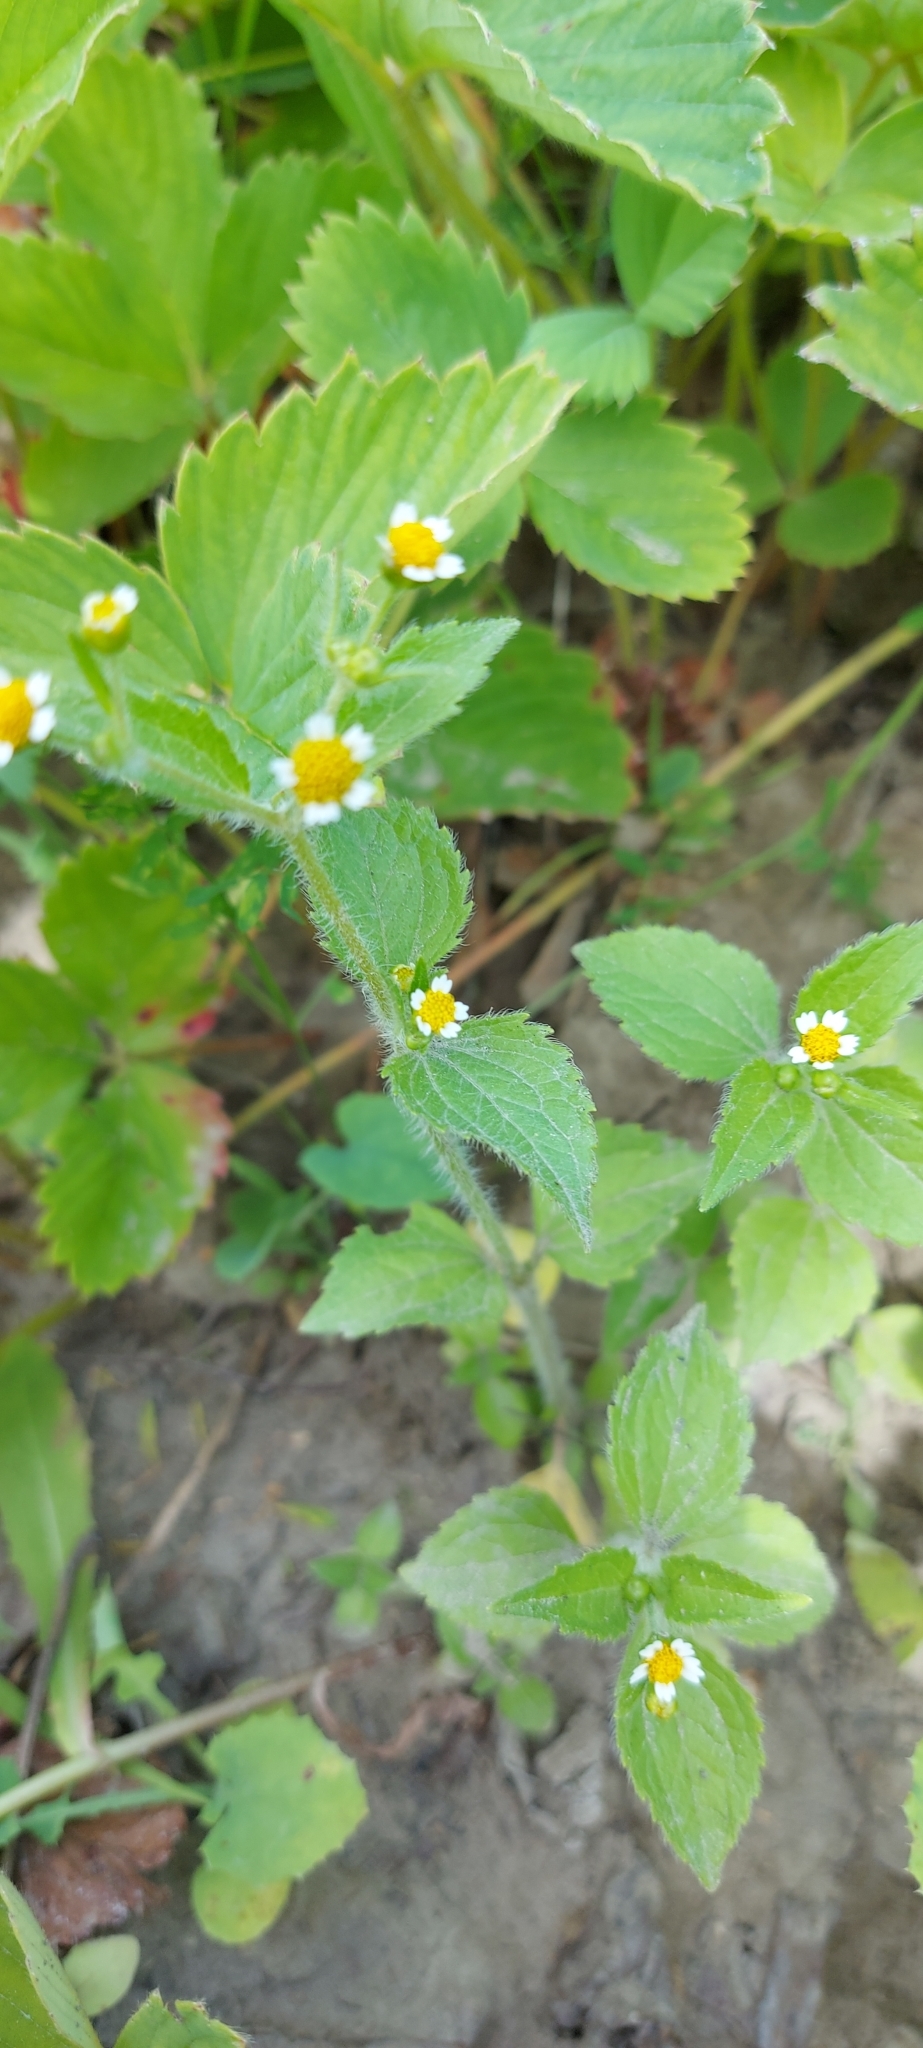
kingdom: Plantae
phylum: Tracheophyta
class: Magnoliopsida
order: Asterales
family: Asteraceae
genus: Galinsoga
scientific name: Galinsoga quadriradiata
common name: Shaggy soldier
